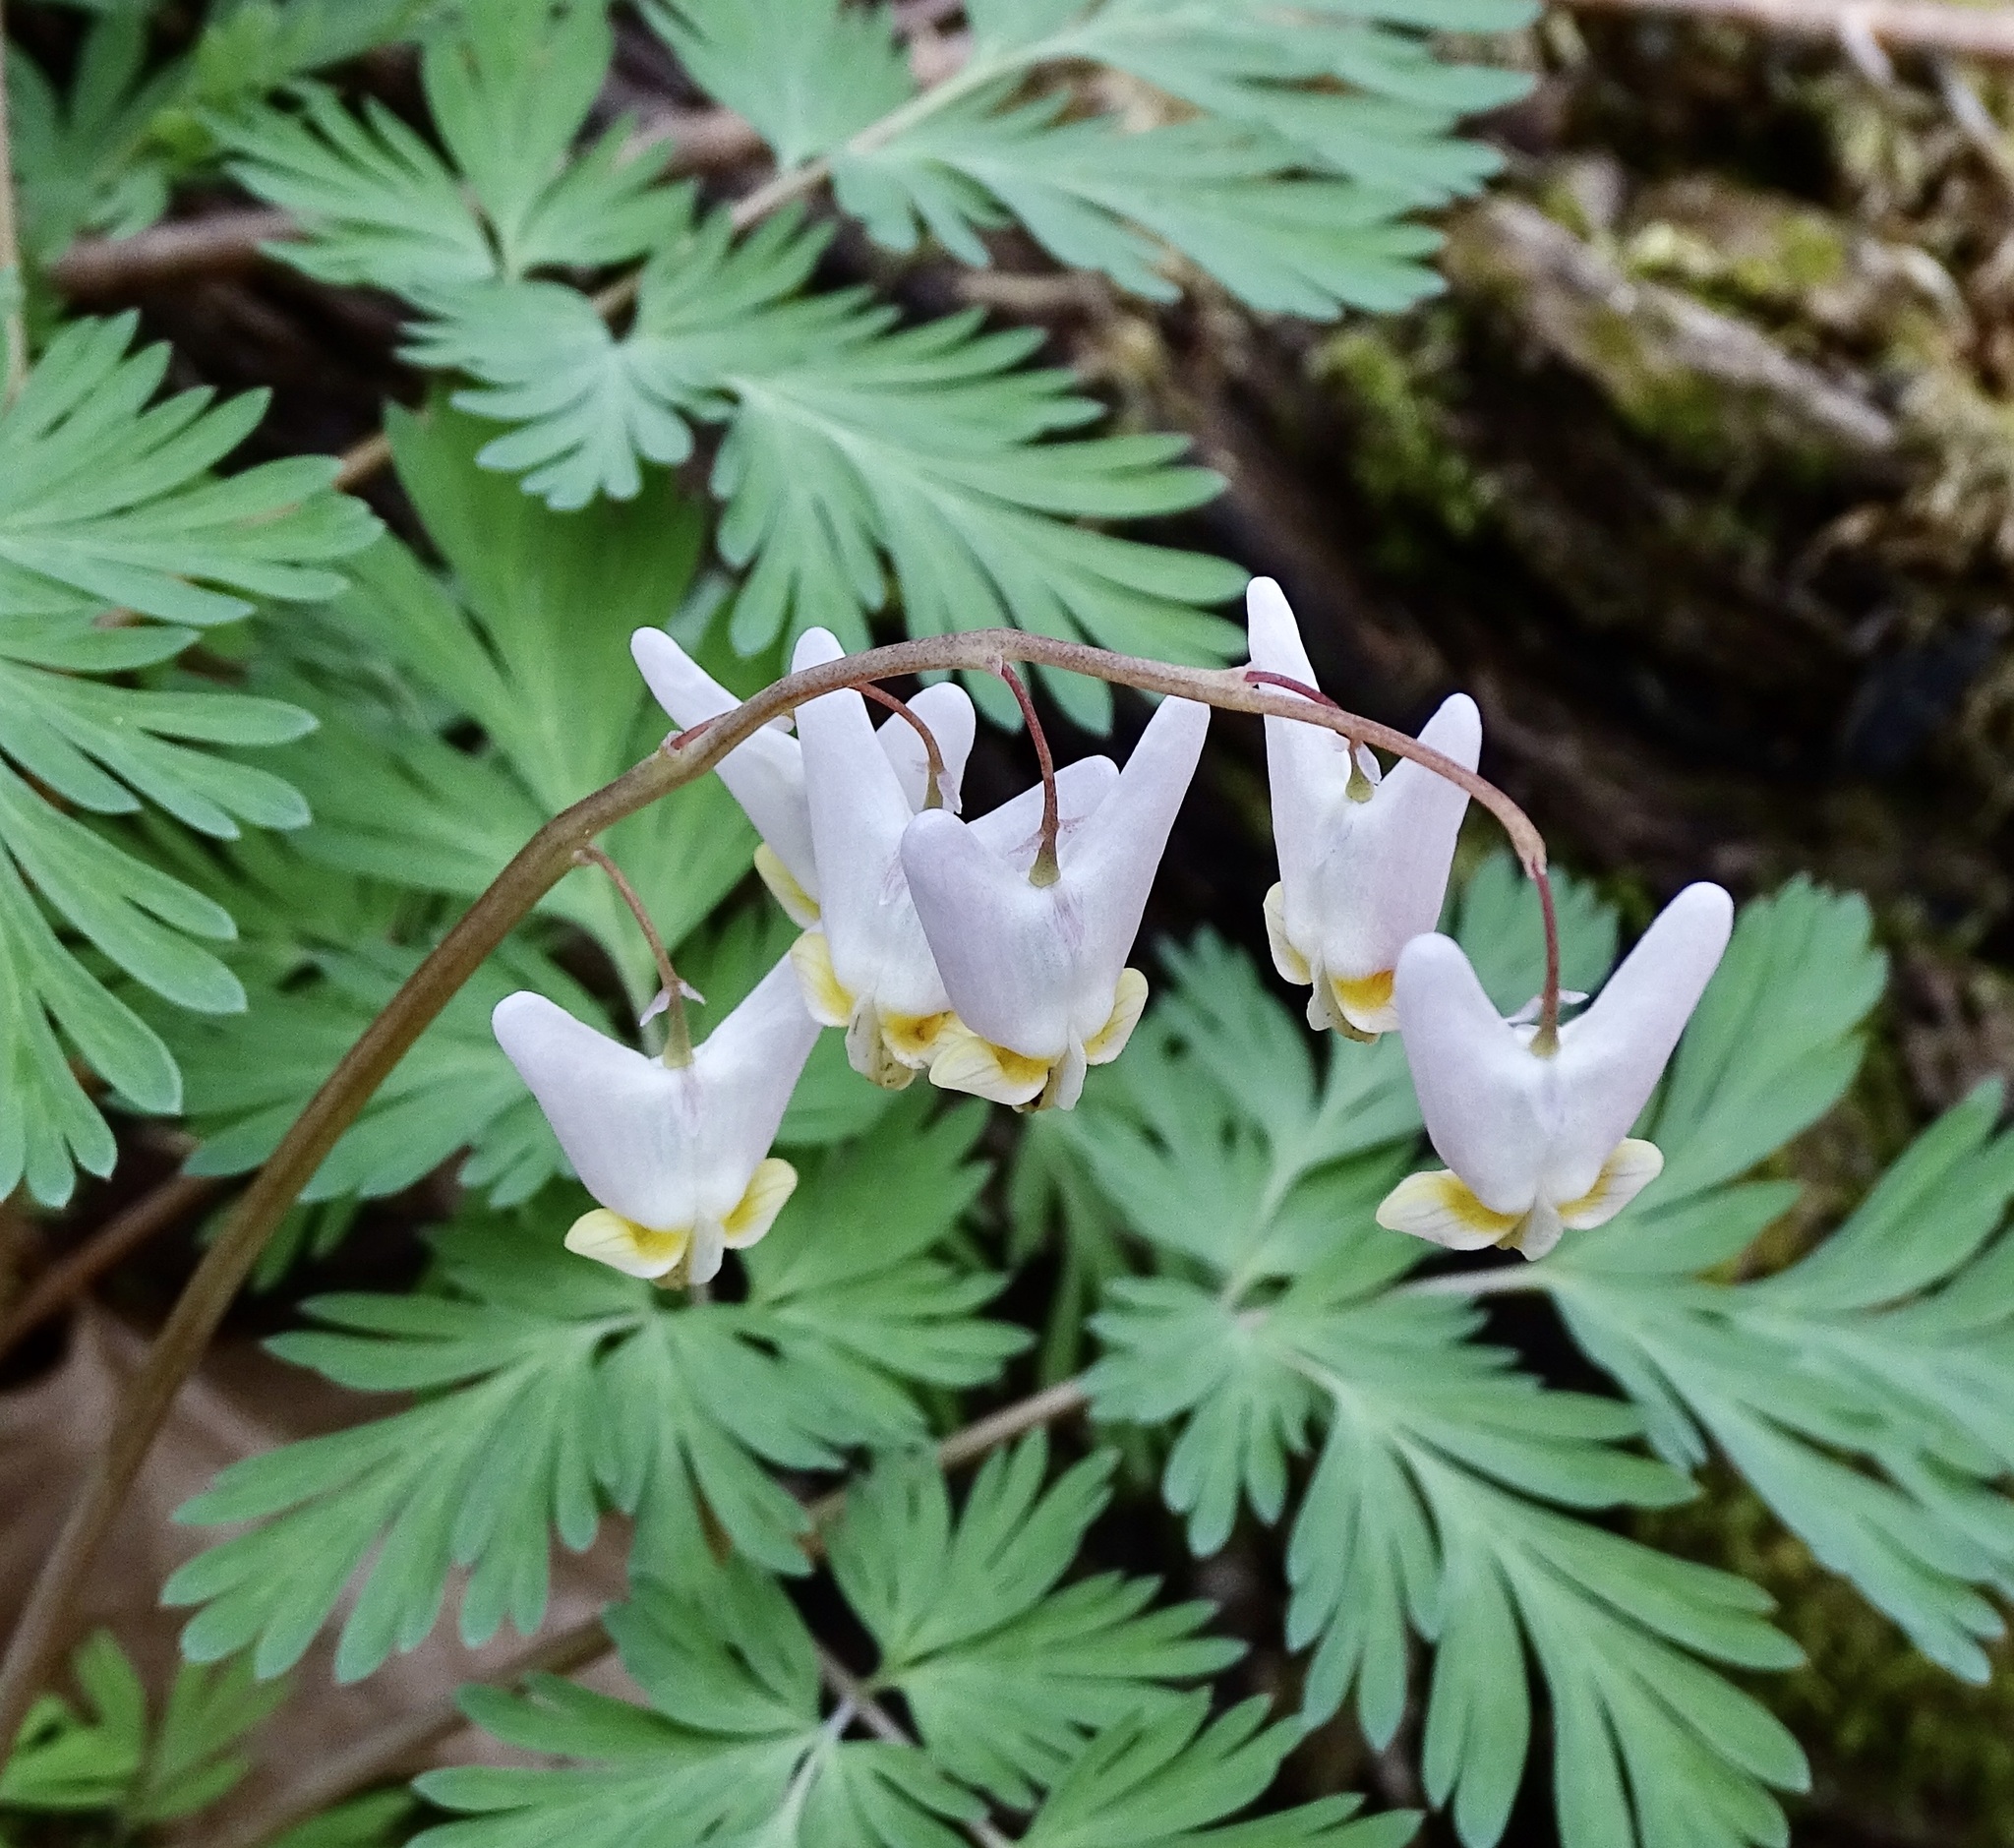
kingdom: Plantae
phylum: Tracheophyta
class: Magnoliopsida
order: Ranunculales
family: Papaveraceae
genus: Dicentra
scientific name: Dicentra cucullaria
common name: Dutchman's breeches
